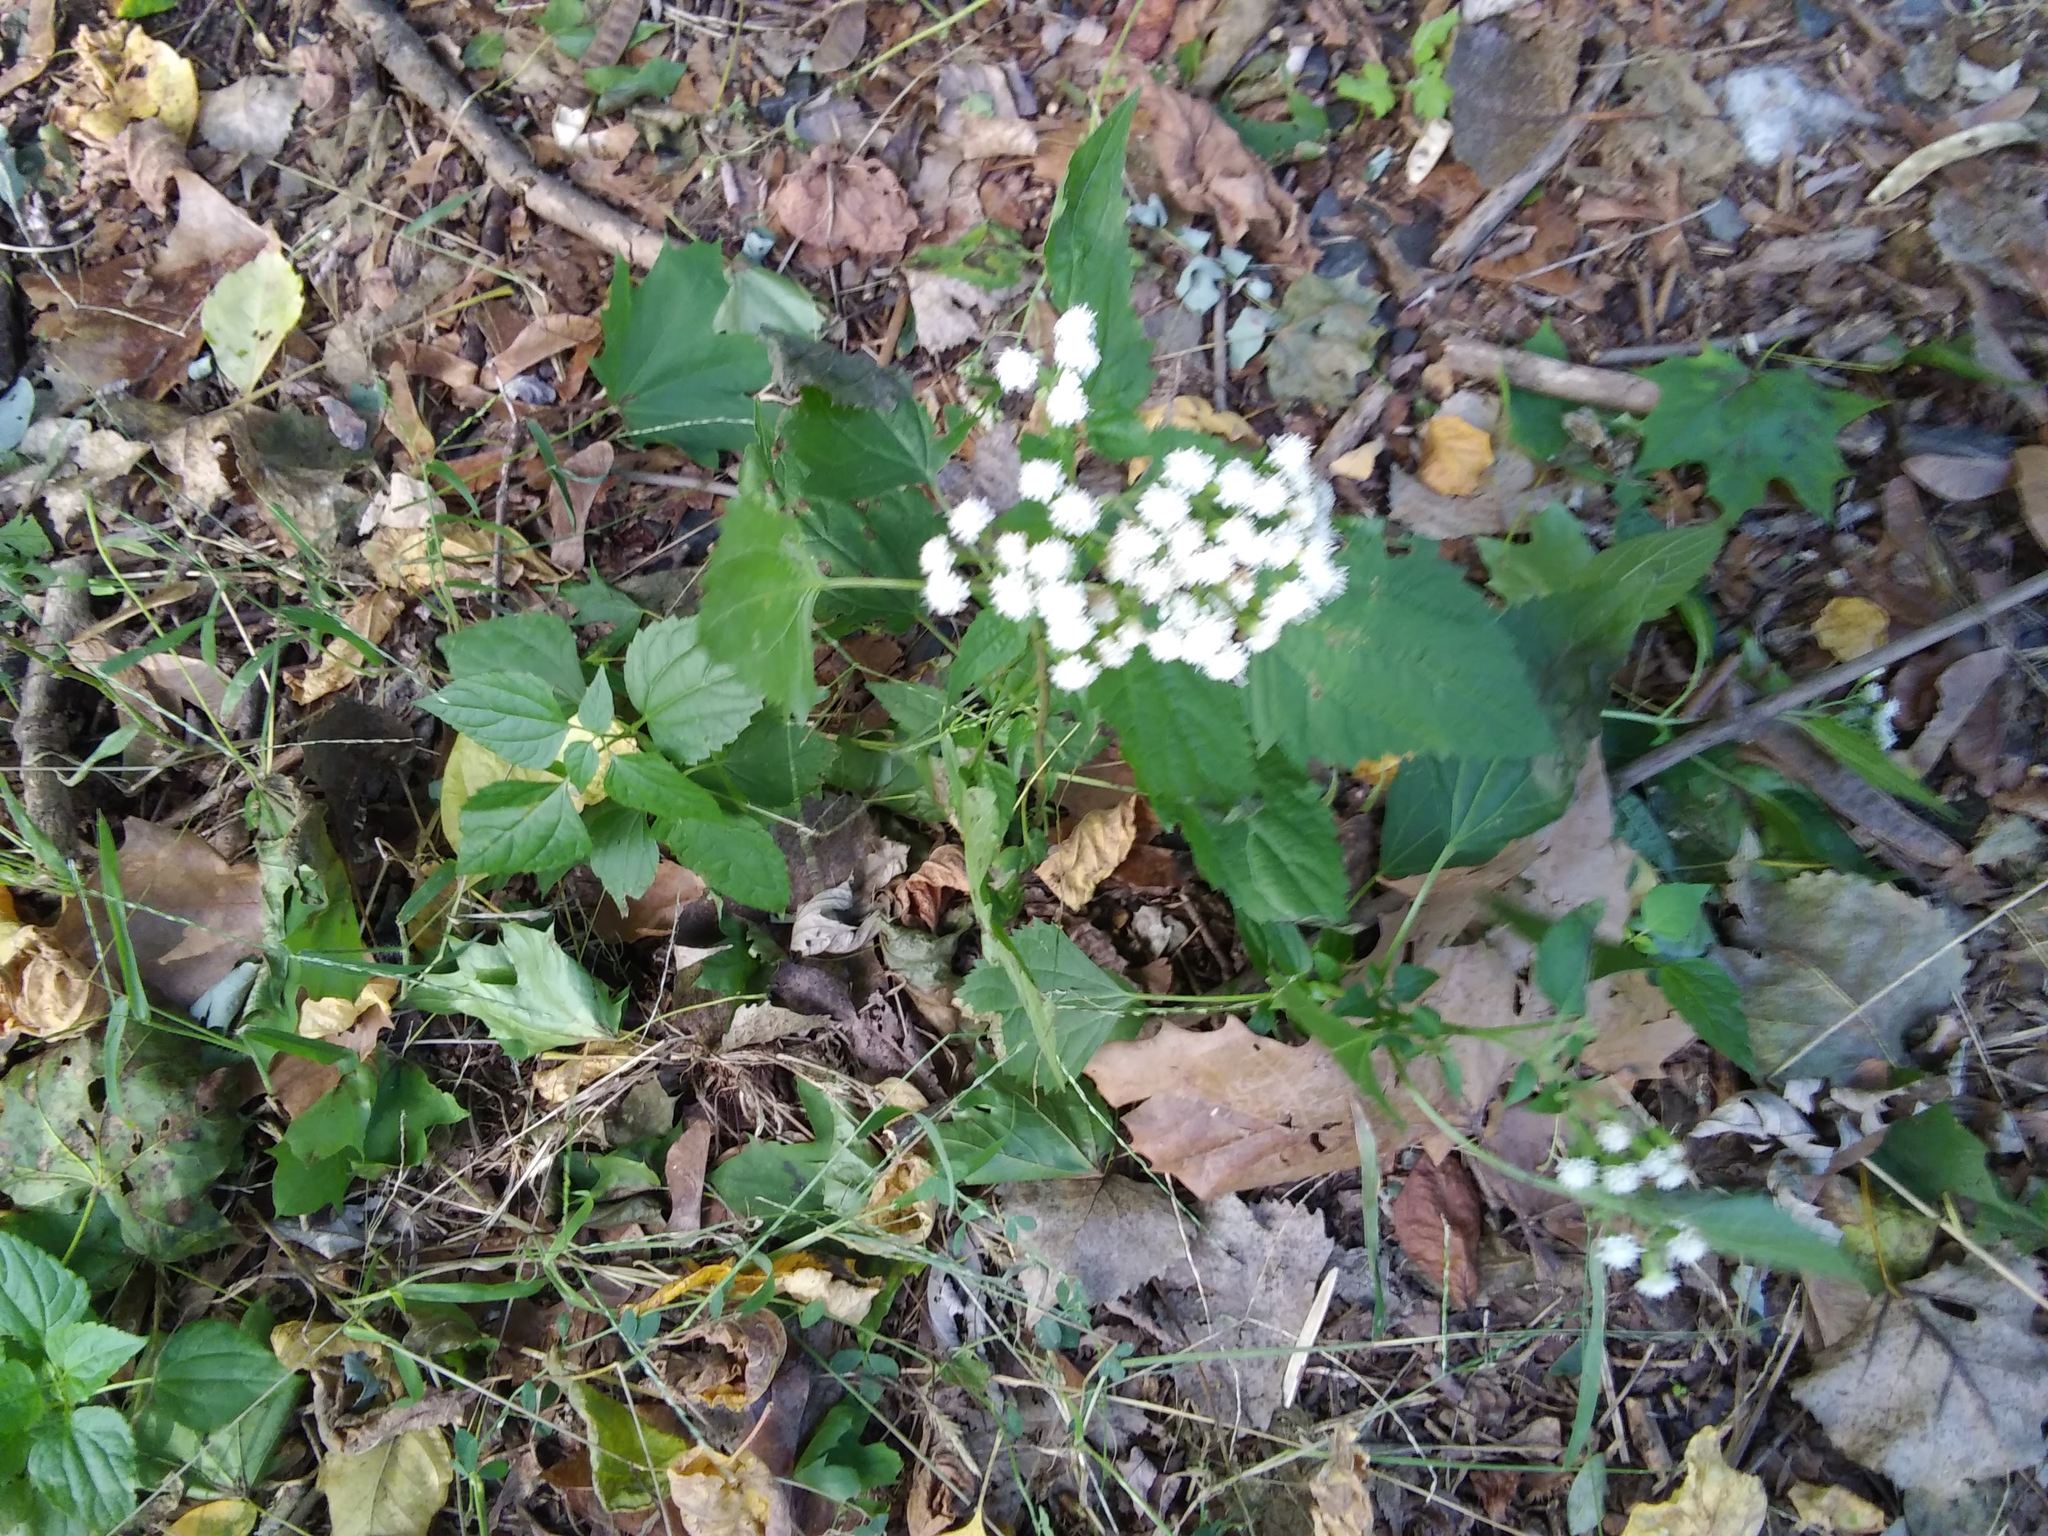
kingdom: Plantae
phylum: Tracheophyta
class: Magnoliopsida
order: Asterales
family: Asteraceae
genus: Ageratina
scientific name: Ageratina altissima
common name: White snakeroot
